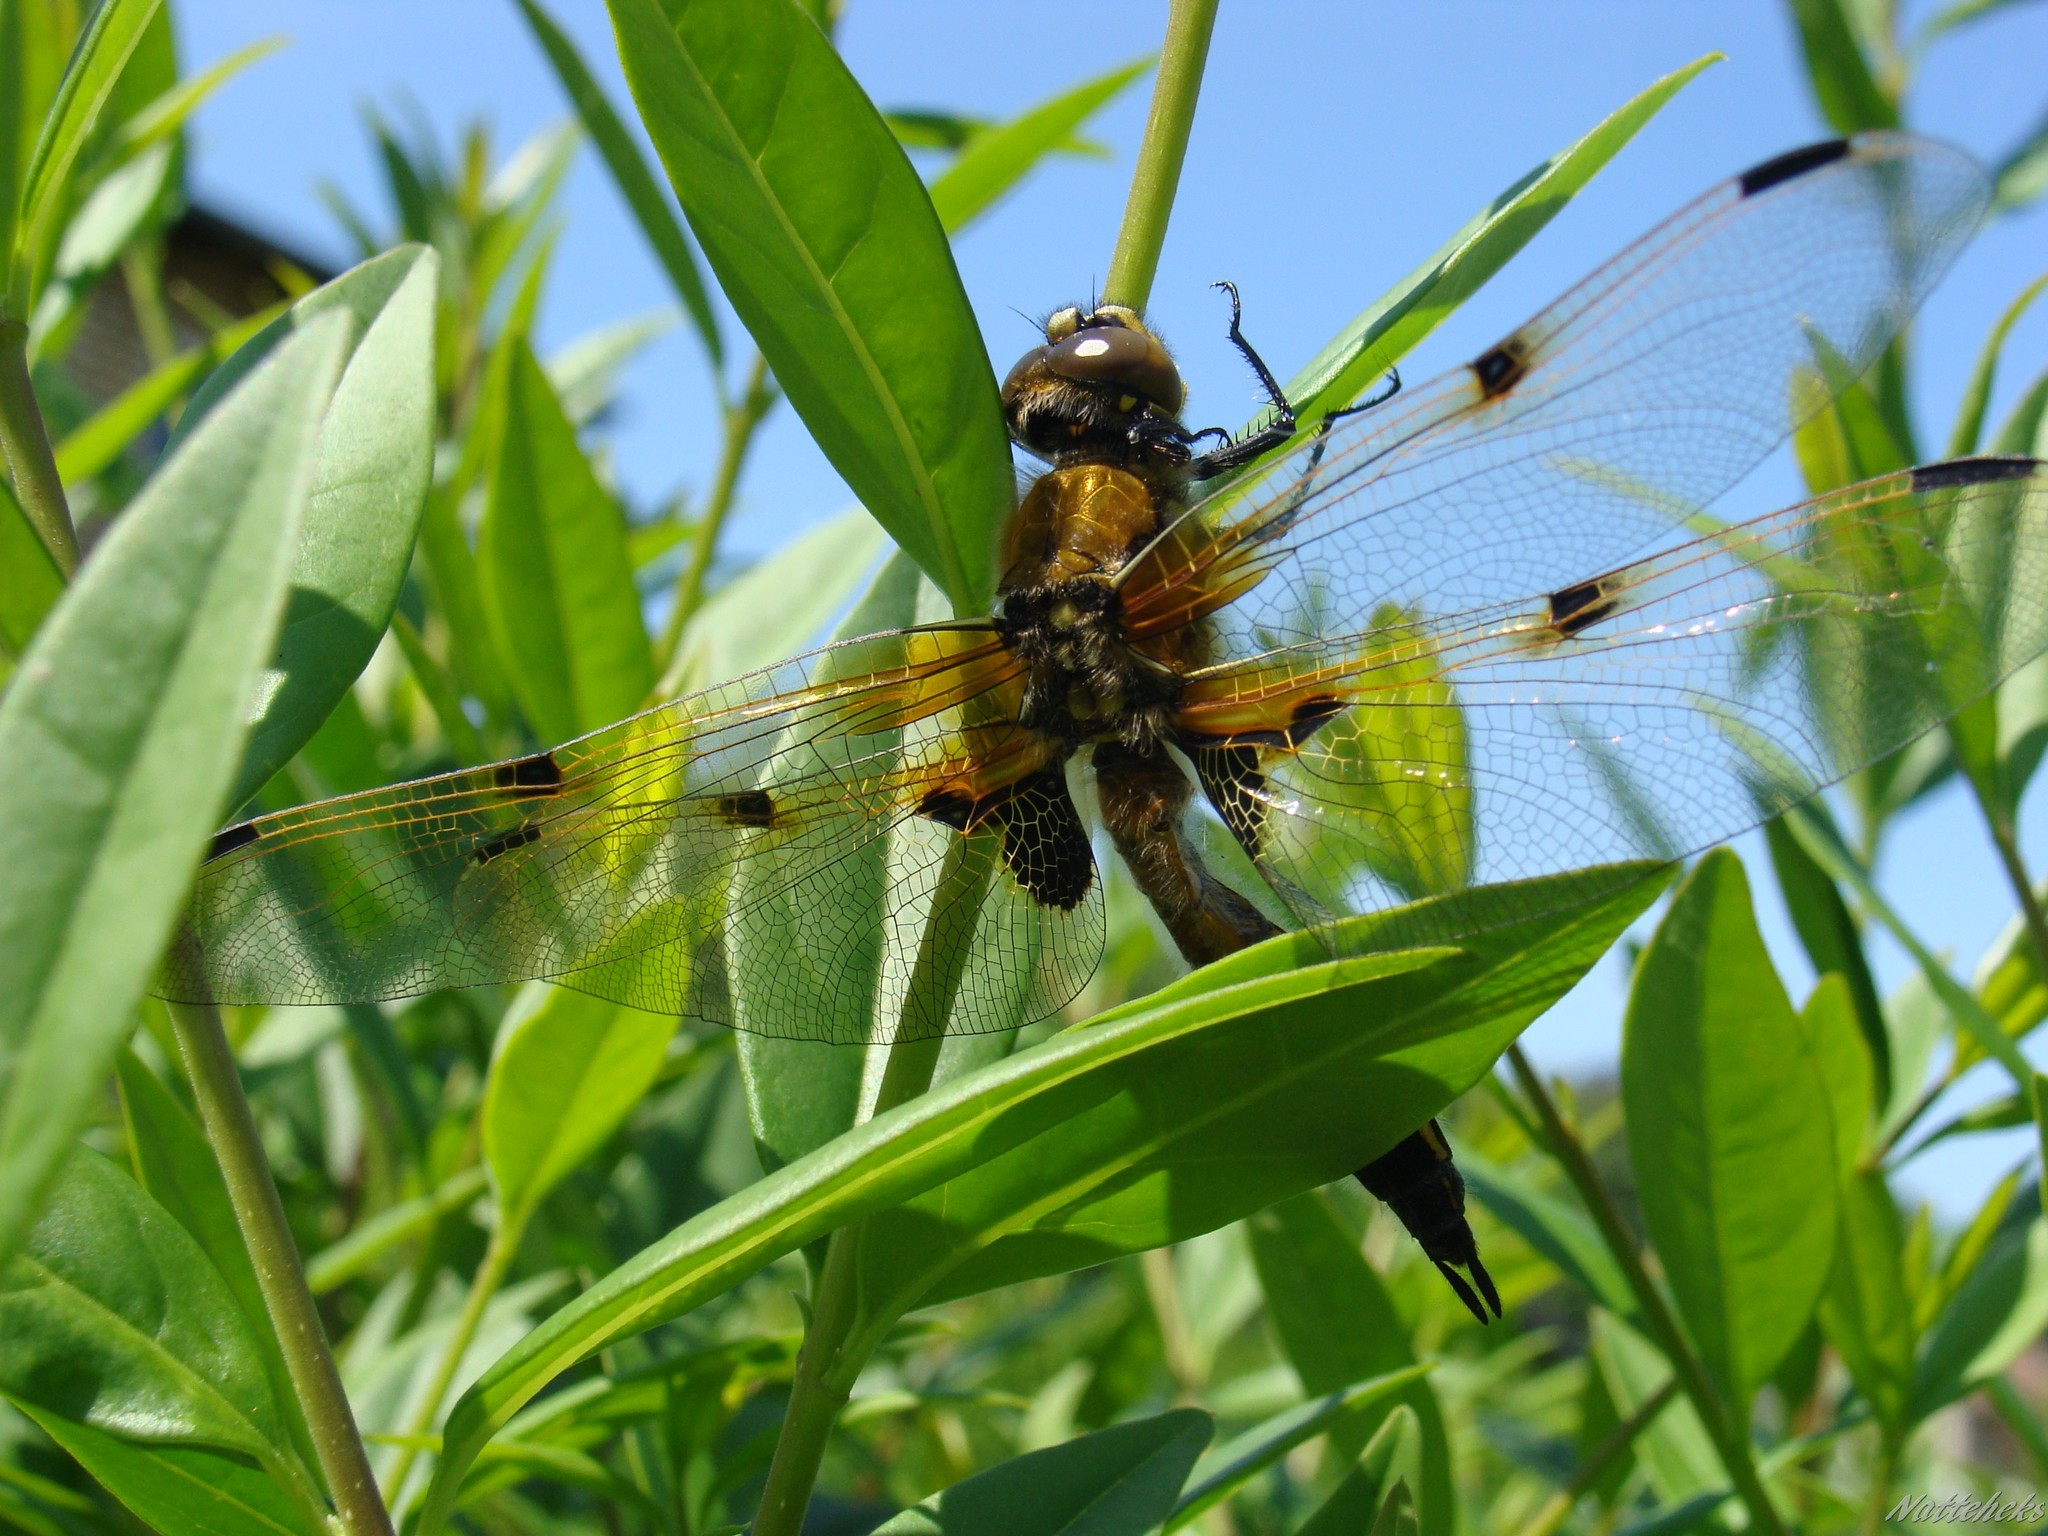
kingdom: Animalia
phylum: Arthropoda
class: Insecta
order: Odonata
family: Libellulidae
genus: Libellula
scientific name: Libellula quadrimaculata
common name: Four-spotted chaser
